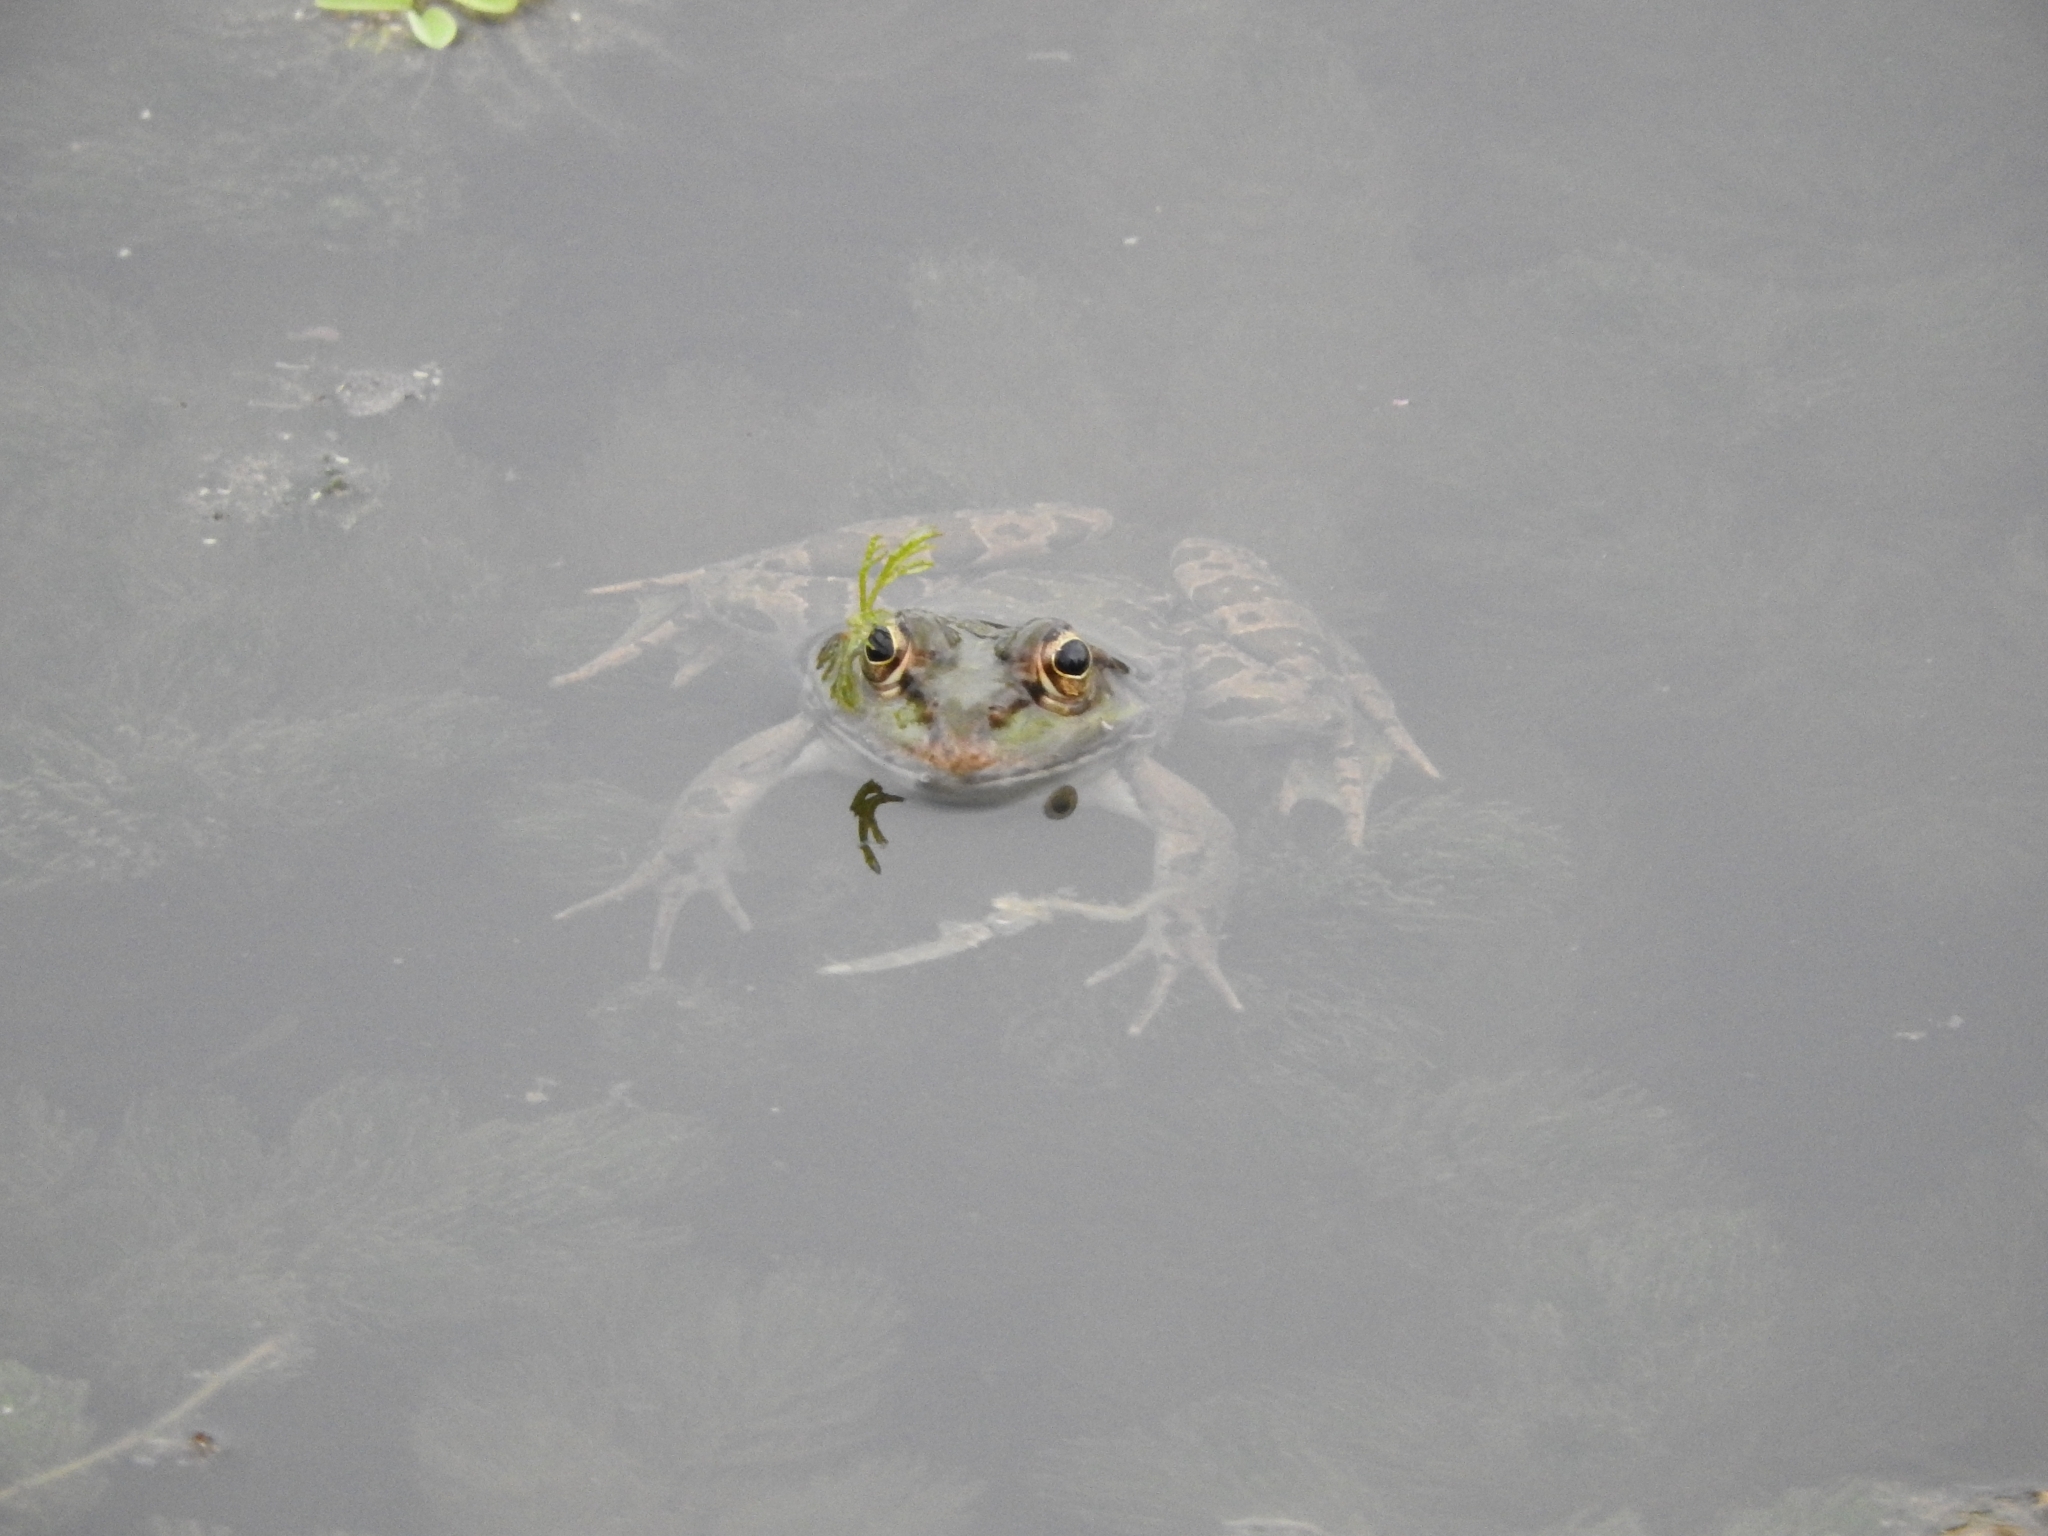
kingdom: Animalia
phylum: Chordata
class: Amphibia
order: Anura
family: Ranidae
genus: Pelophylax
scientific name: Pelophylax ridibundus
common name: Marsh frog
